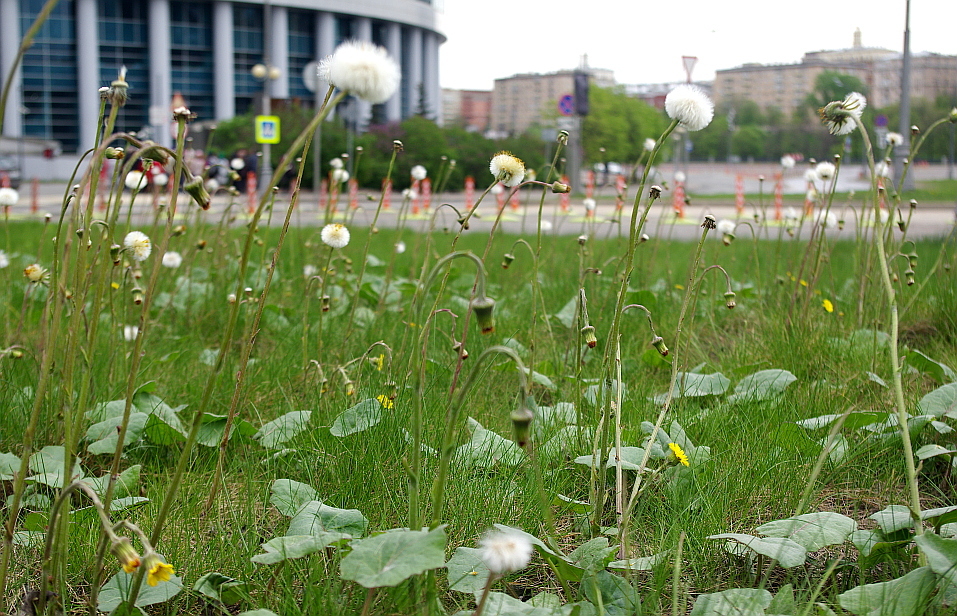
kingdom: Plantae
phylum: Tracheophyta
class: Magnoliopsida
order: Asterales
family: Asteraceae
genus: Tussilago
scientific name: Tussilago farfara
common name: Coltsfoot
